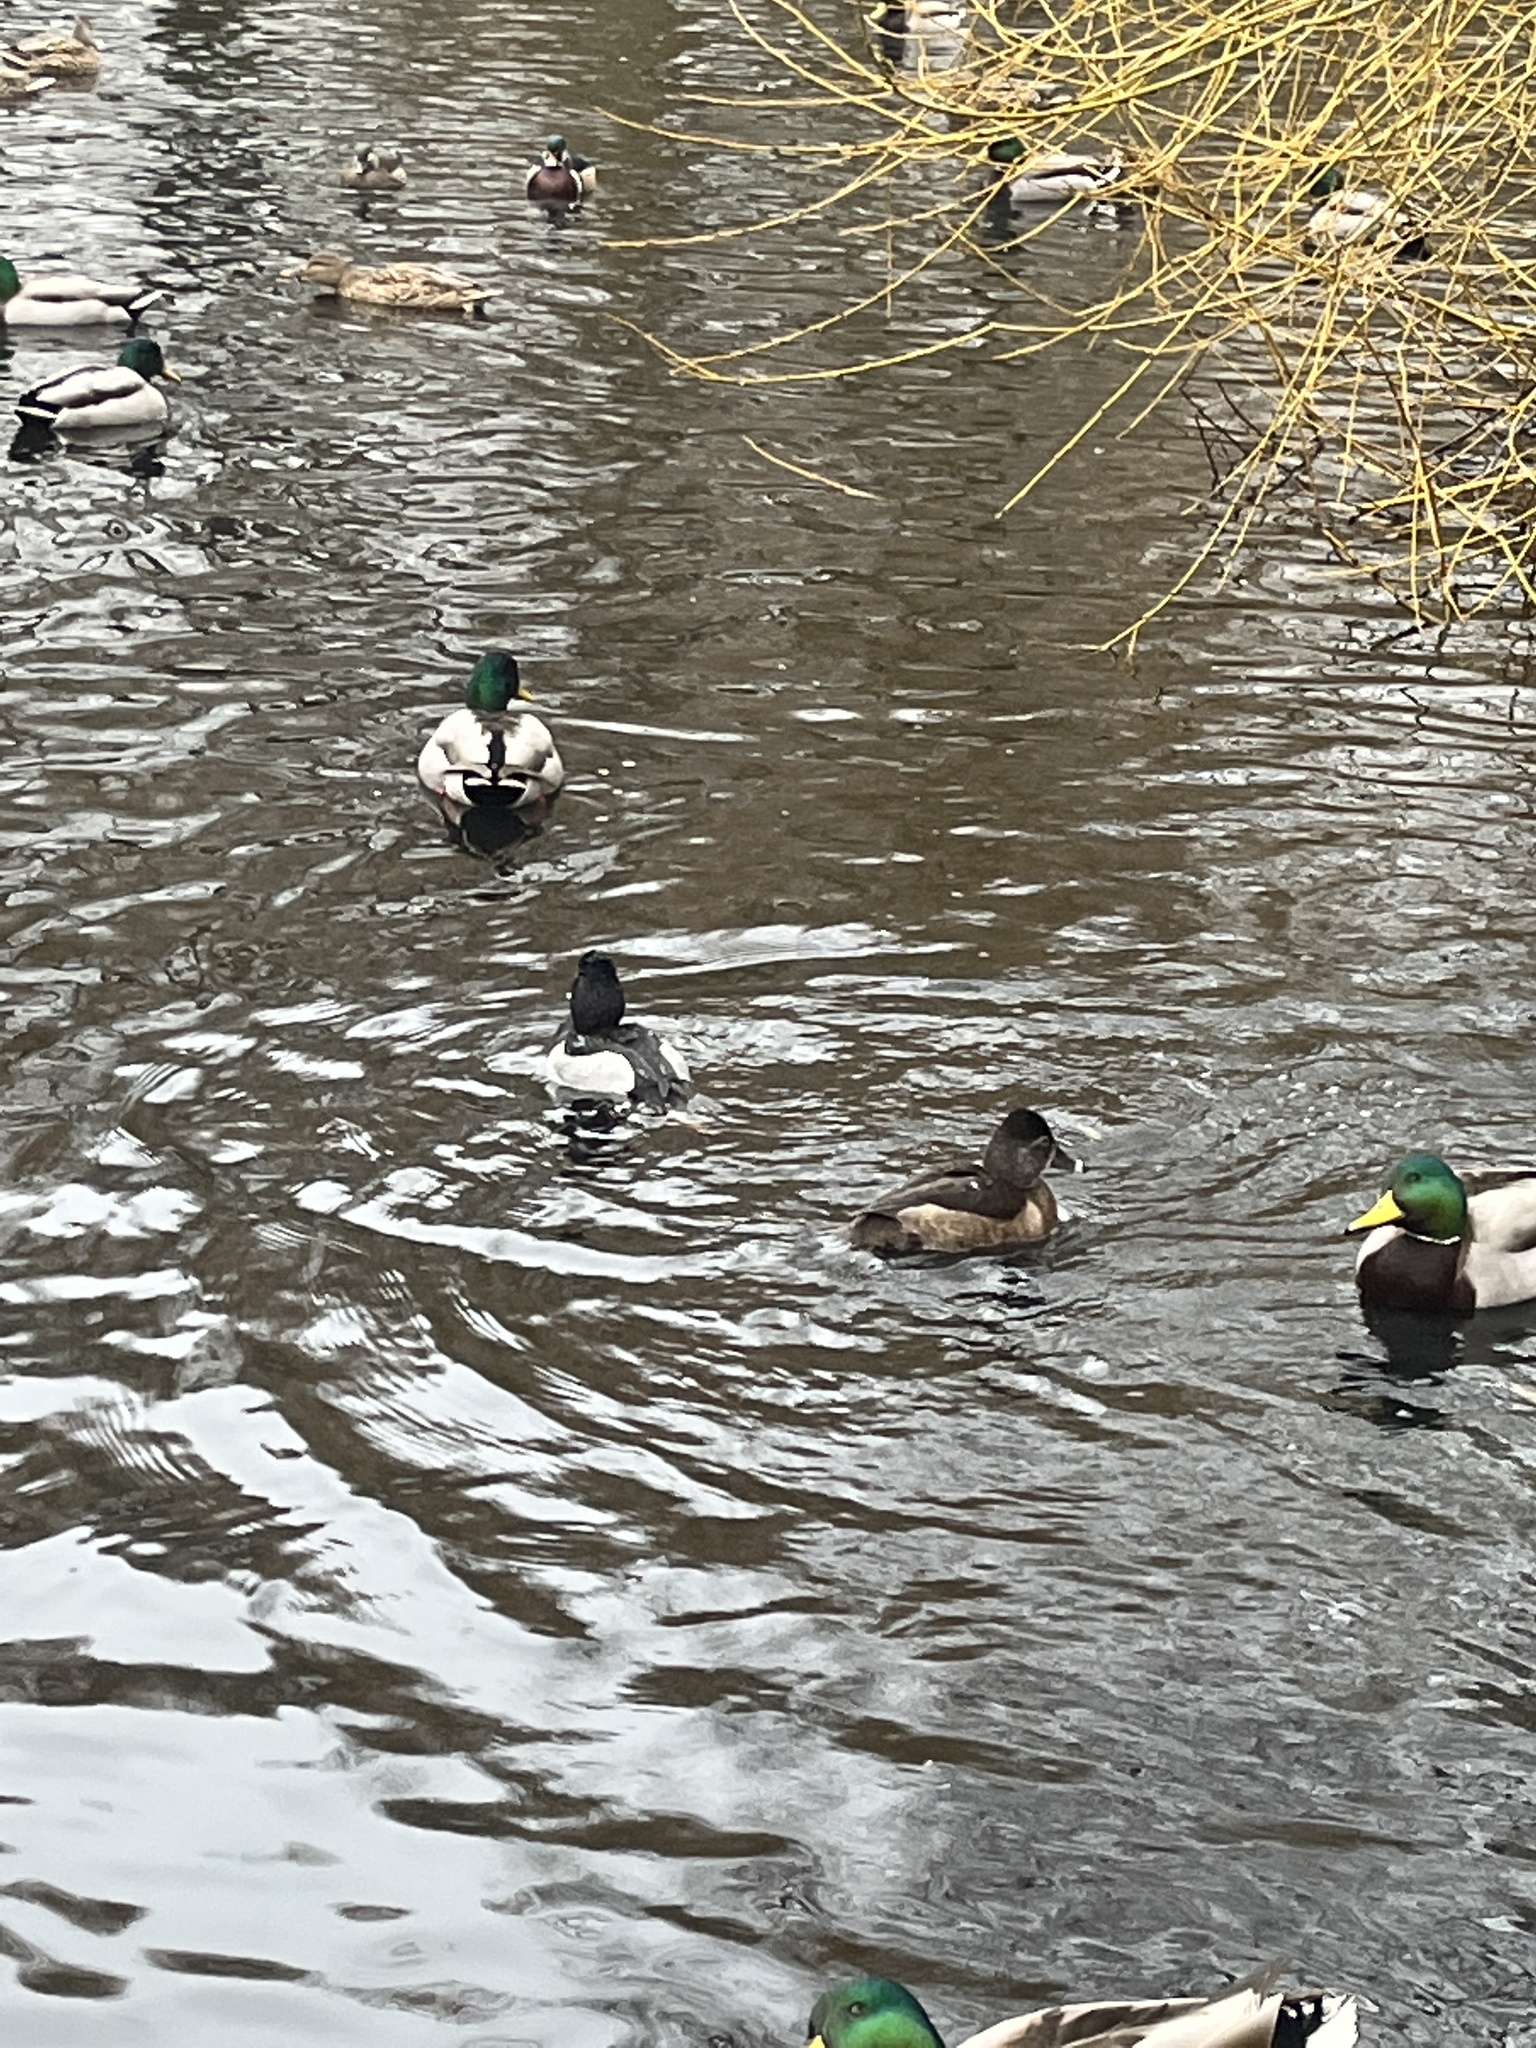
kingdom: Animalia
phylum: Chordata
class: Aves
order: Anseriformes
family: Anatidae
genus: Aythya
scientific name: Aythya collaris
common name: Ring-necked duck
